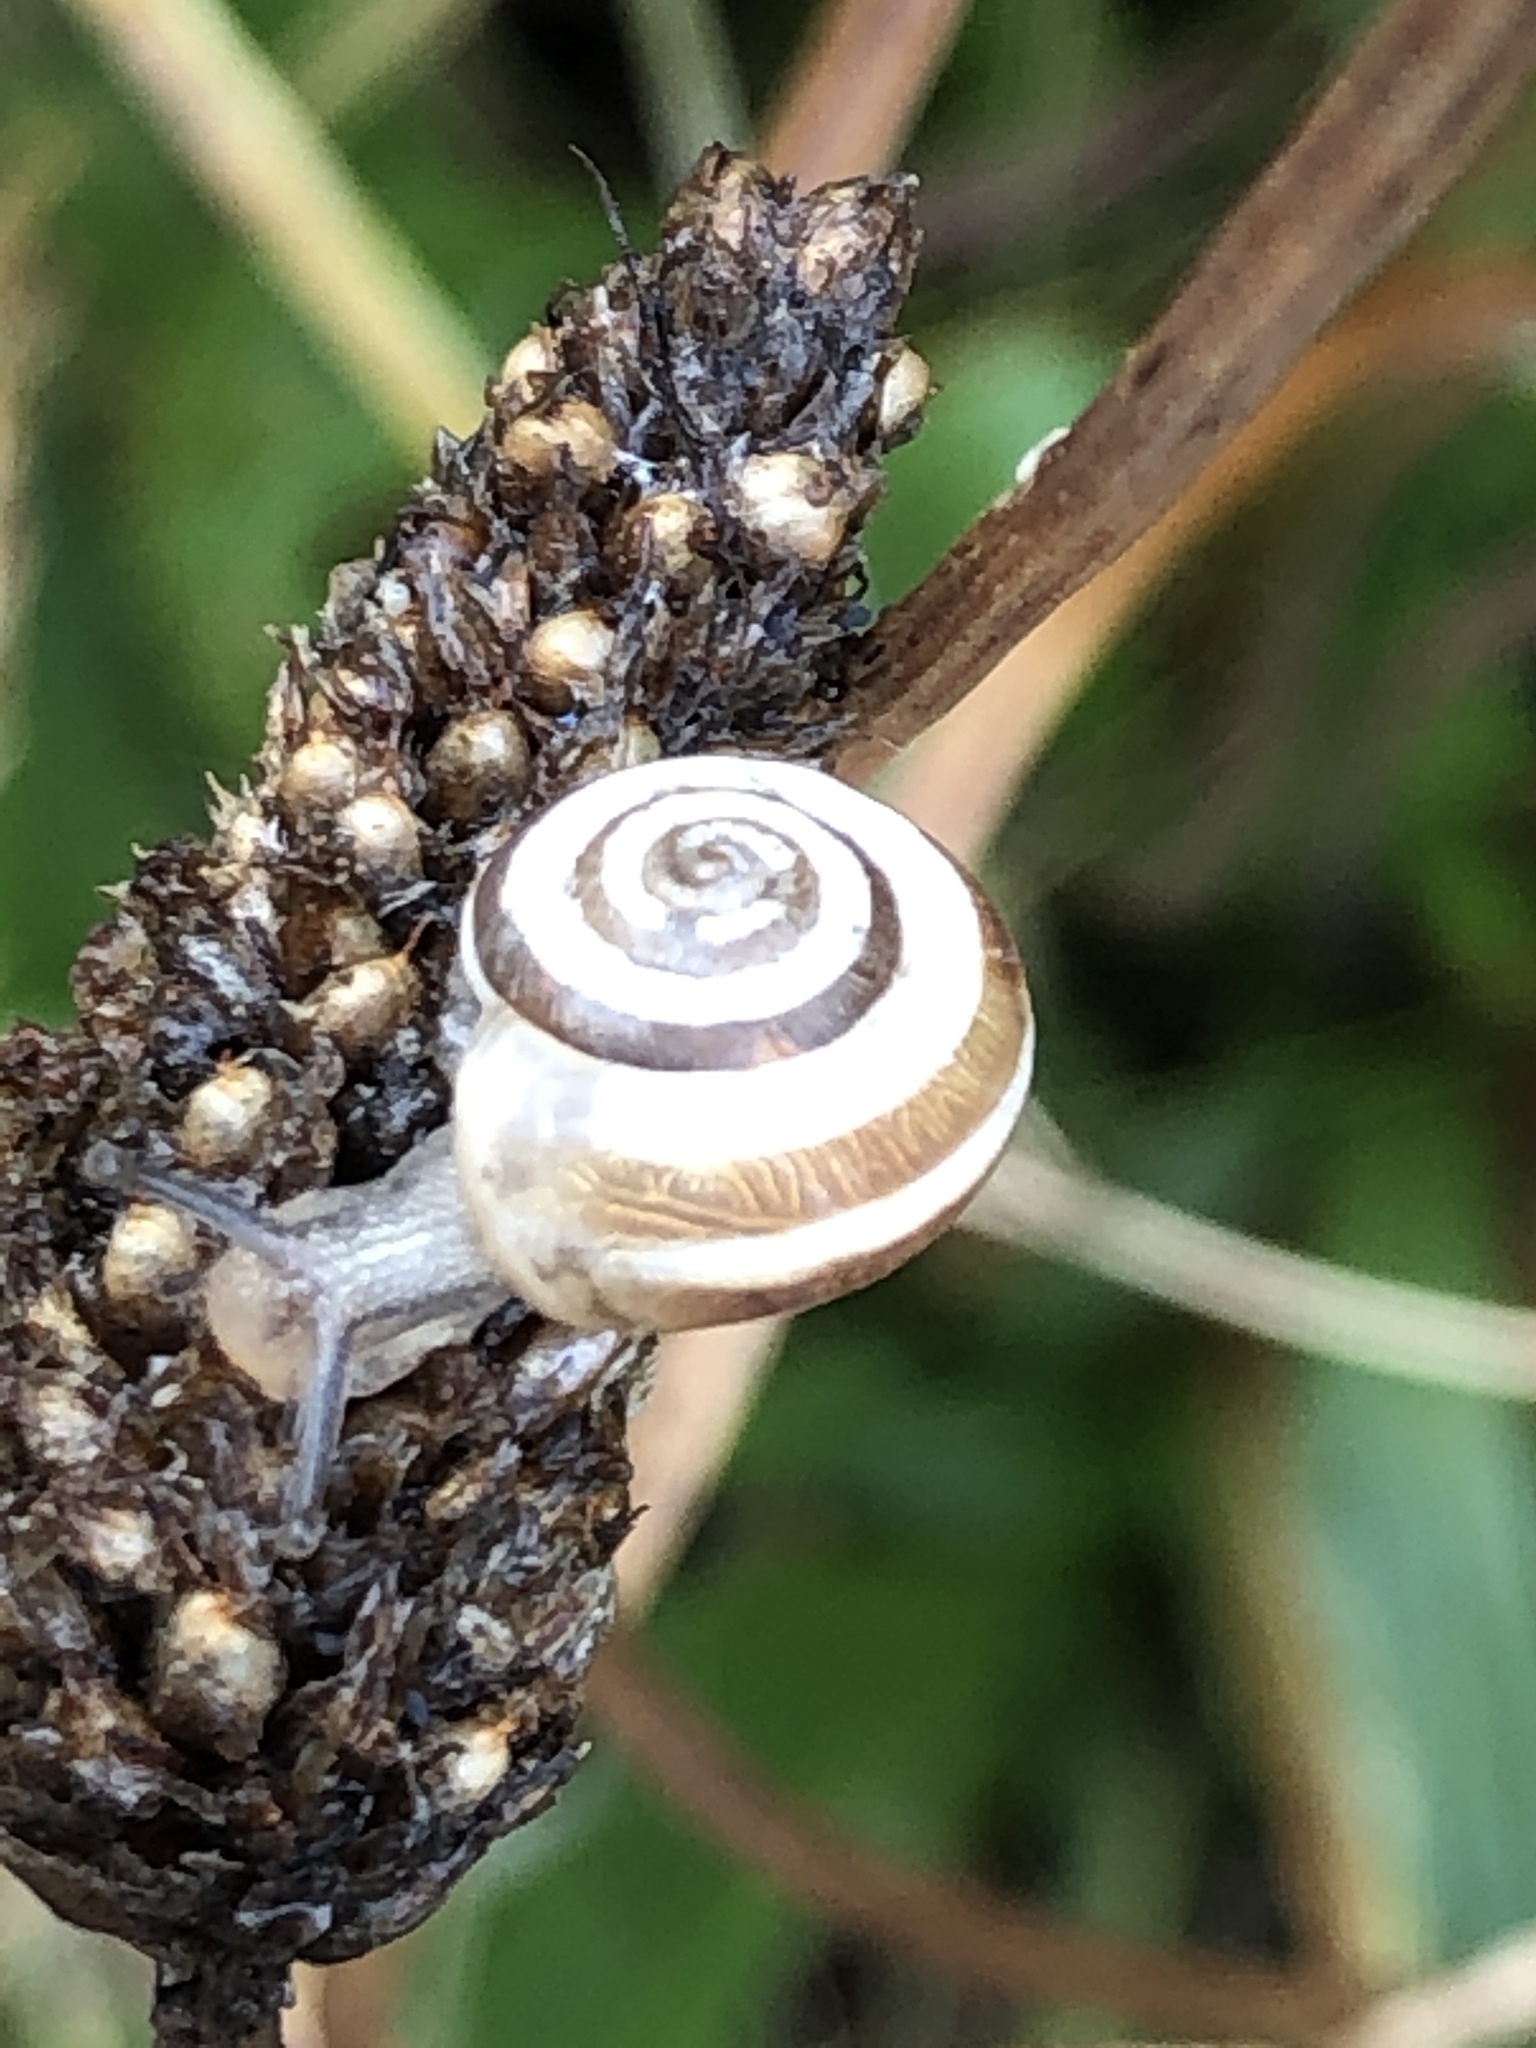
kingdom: Animalia
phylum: Mollusca
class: Gastropoda
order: Stylommatophora
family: Geomitridae
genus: Helicella
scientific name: Helicella itala
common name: Heath snail
